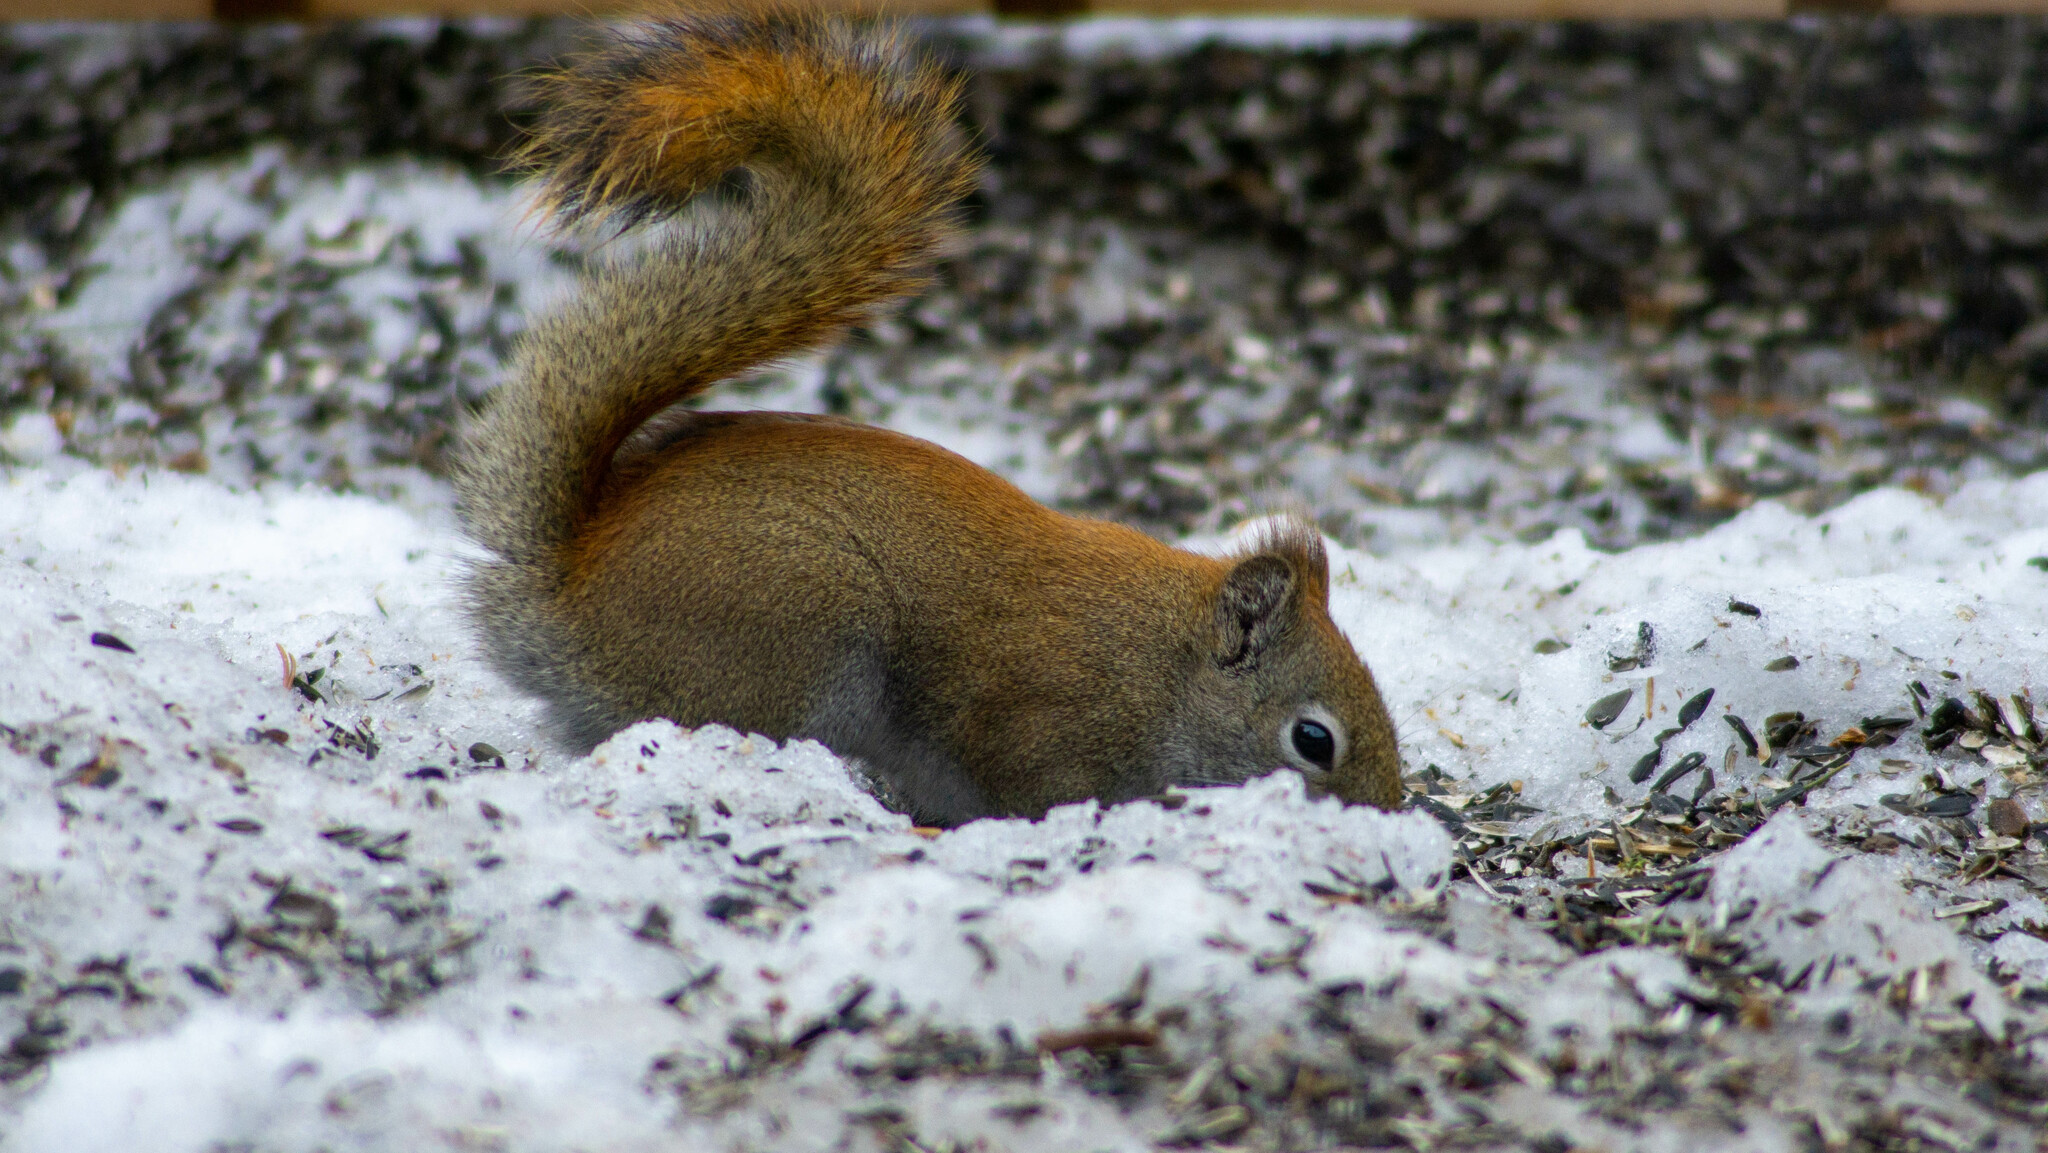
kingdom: Animalia
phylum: Chordata
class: Mammalia
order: Rodentia
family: Sciuridae
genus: Tamiasciurus
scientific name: Tamiasciurus hudsonicus
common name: Red squirrel
